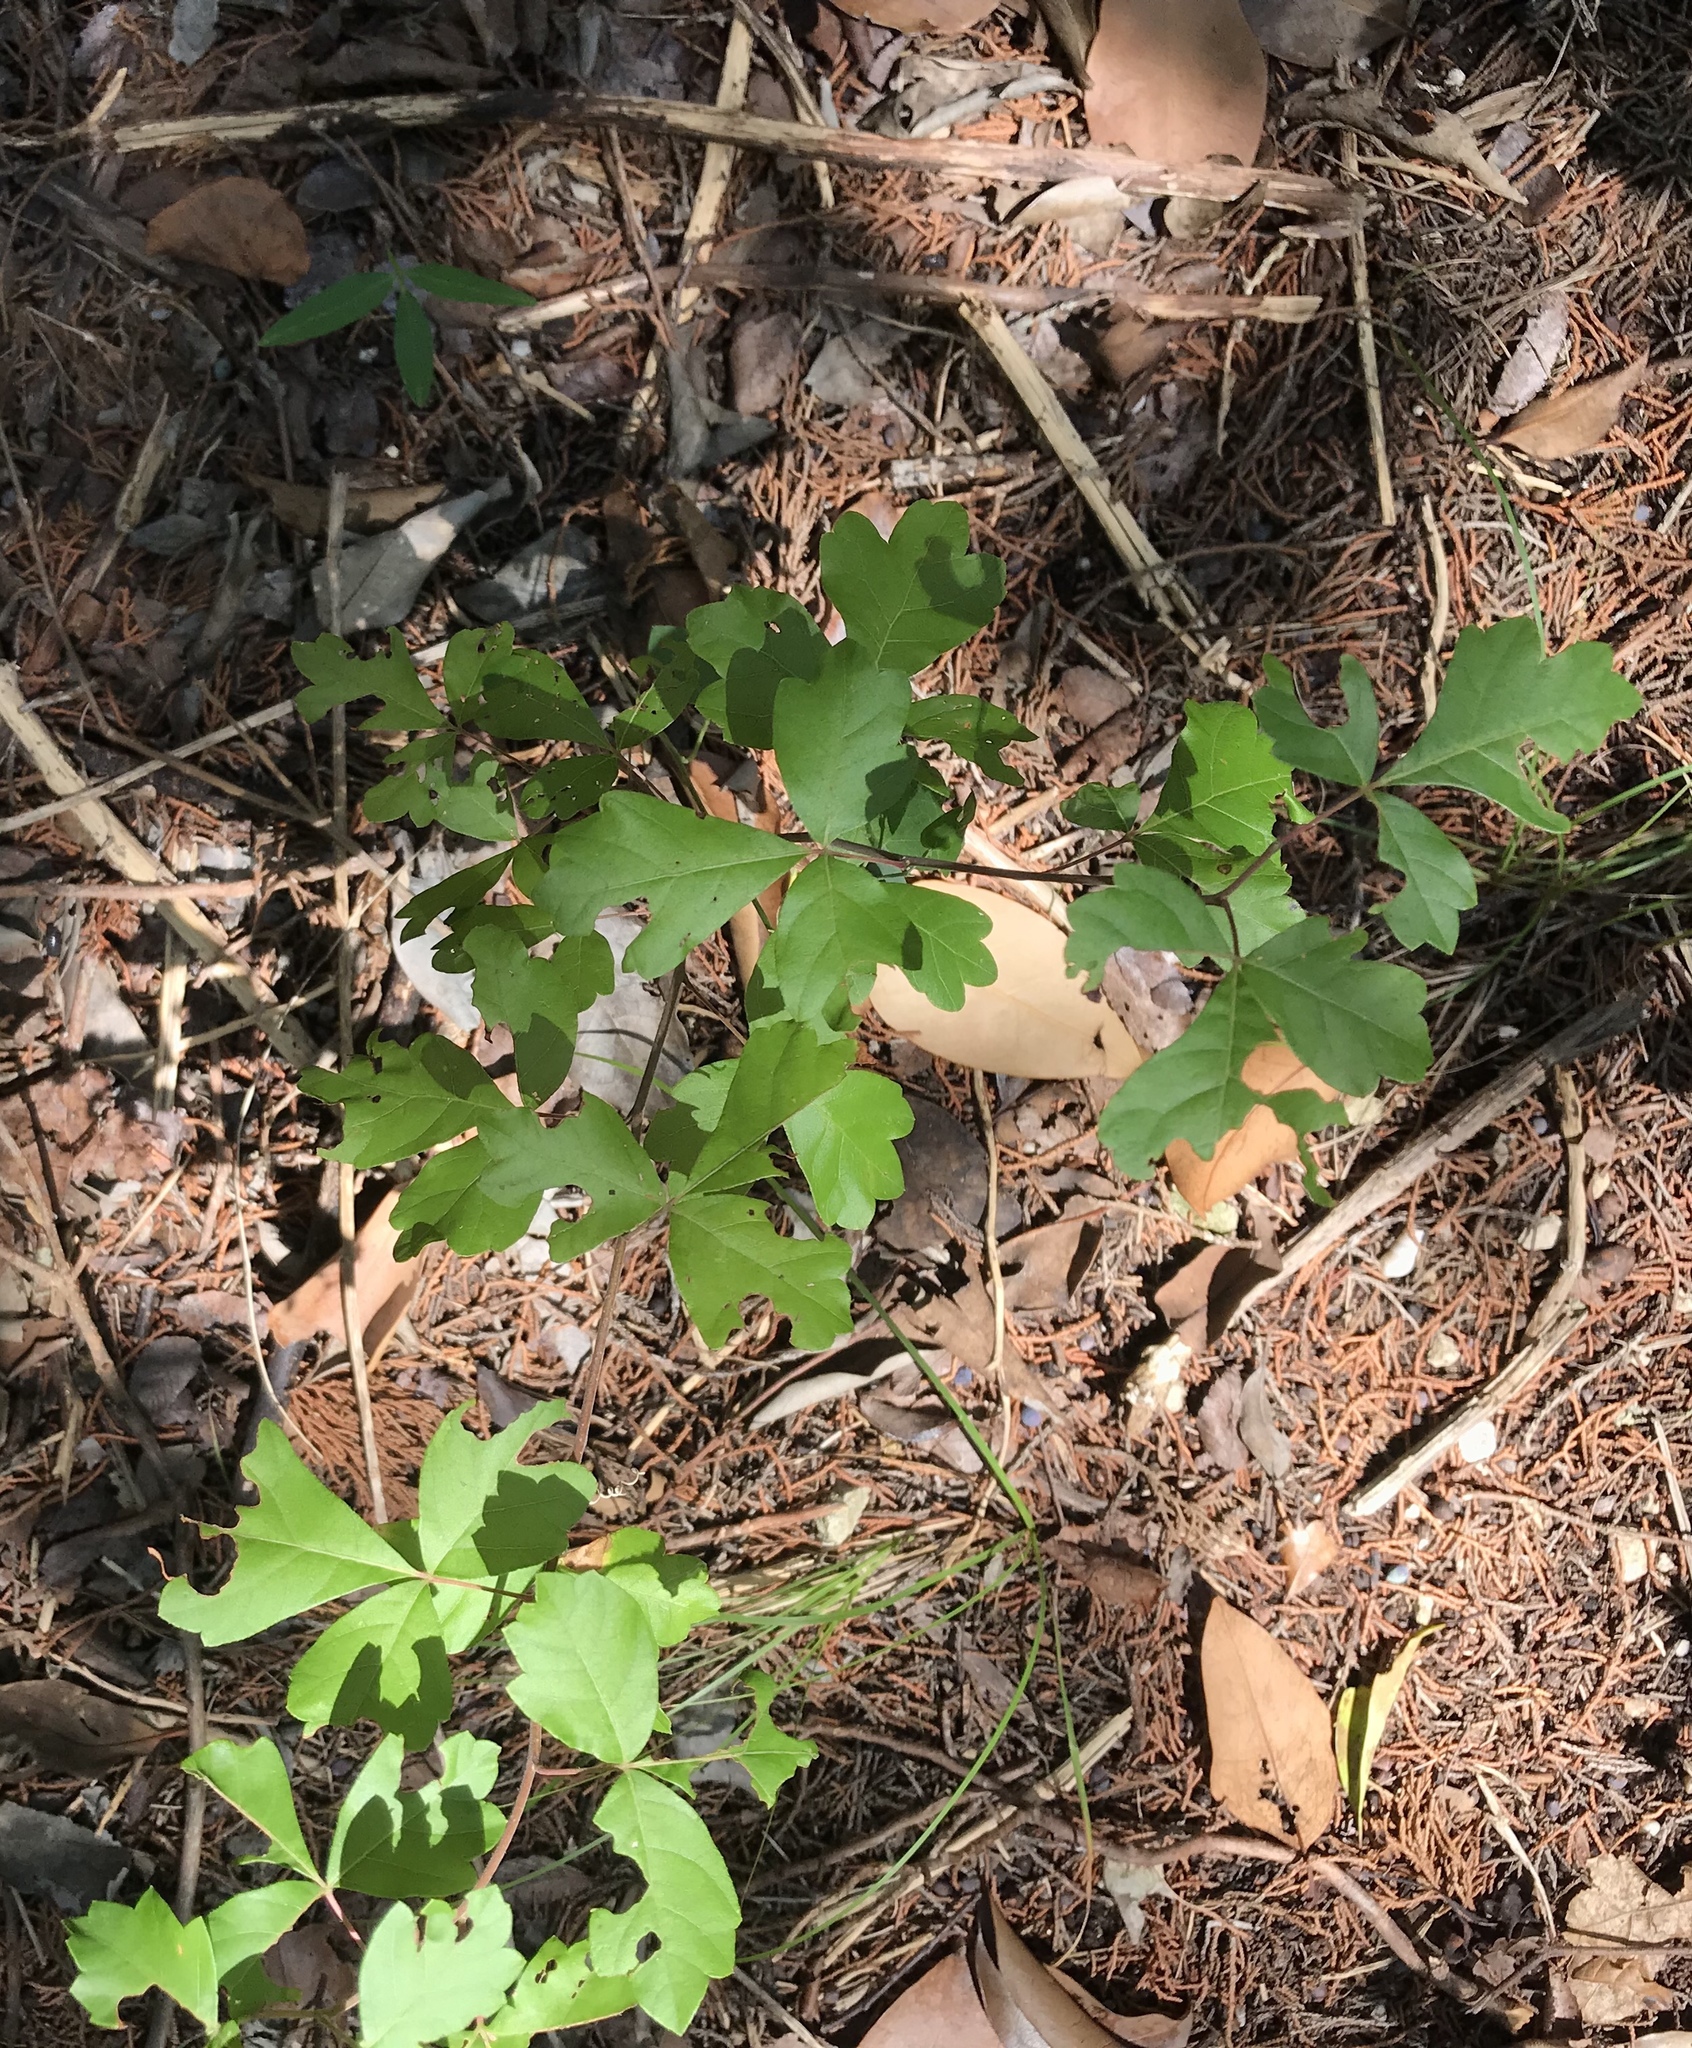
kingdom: Plantae
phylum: Tracheophyta
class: Magnoliopsida
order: Sapindales
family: Anacardiaceae
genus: Rhus
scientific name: Rhus aromatica
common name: Aromatic sumac
